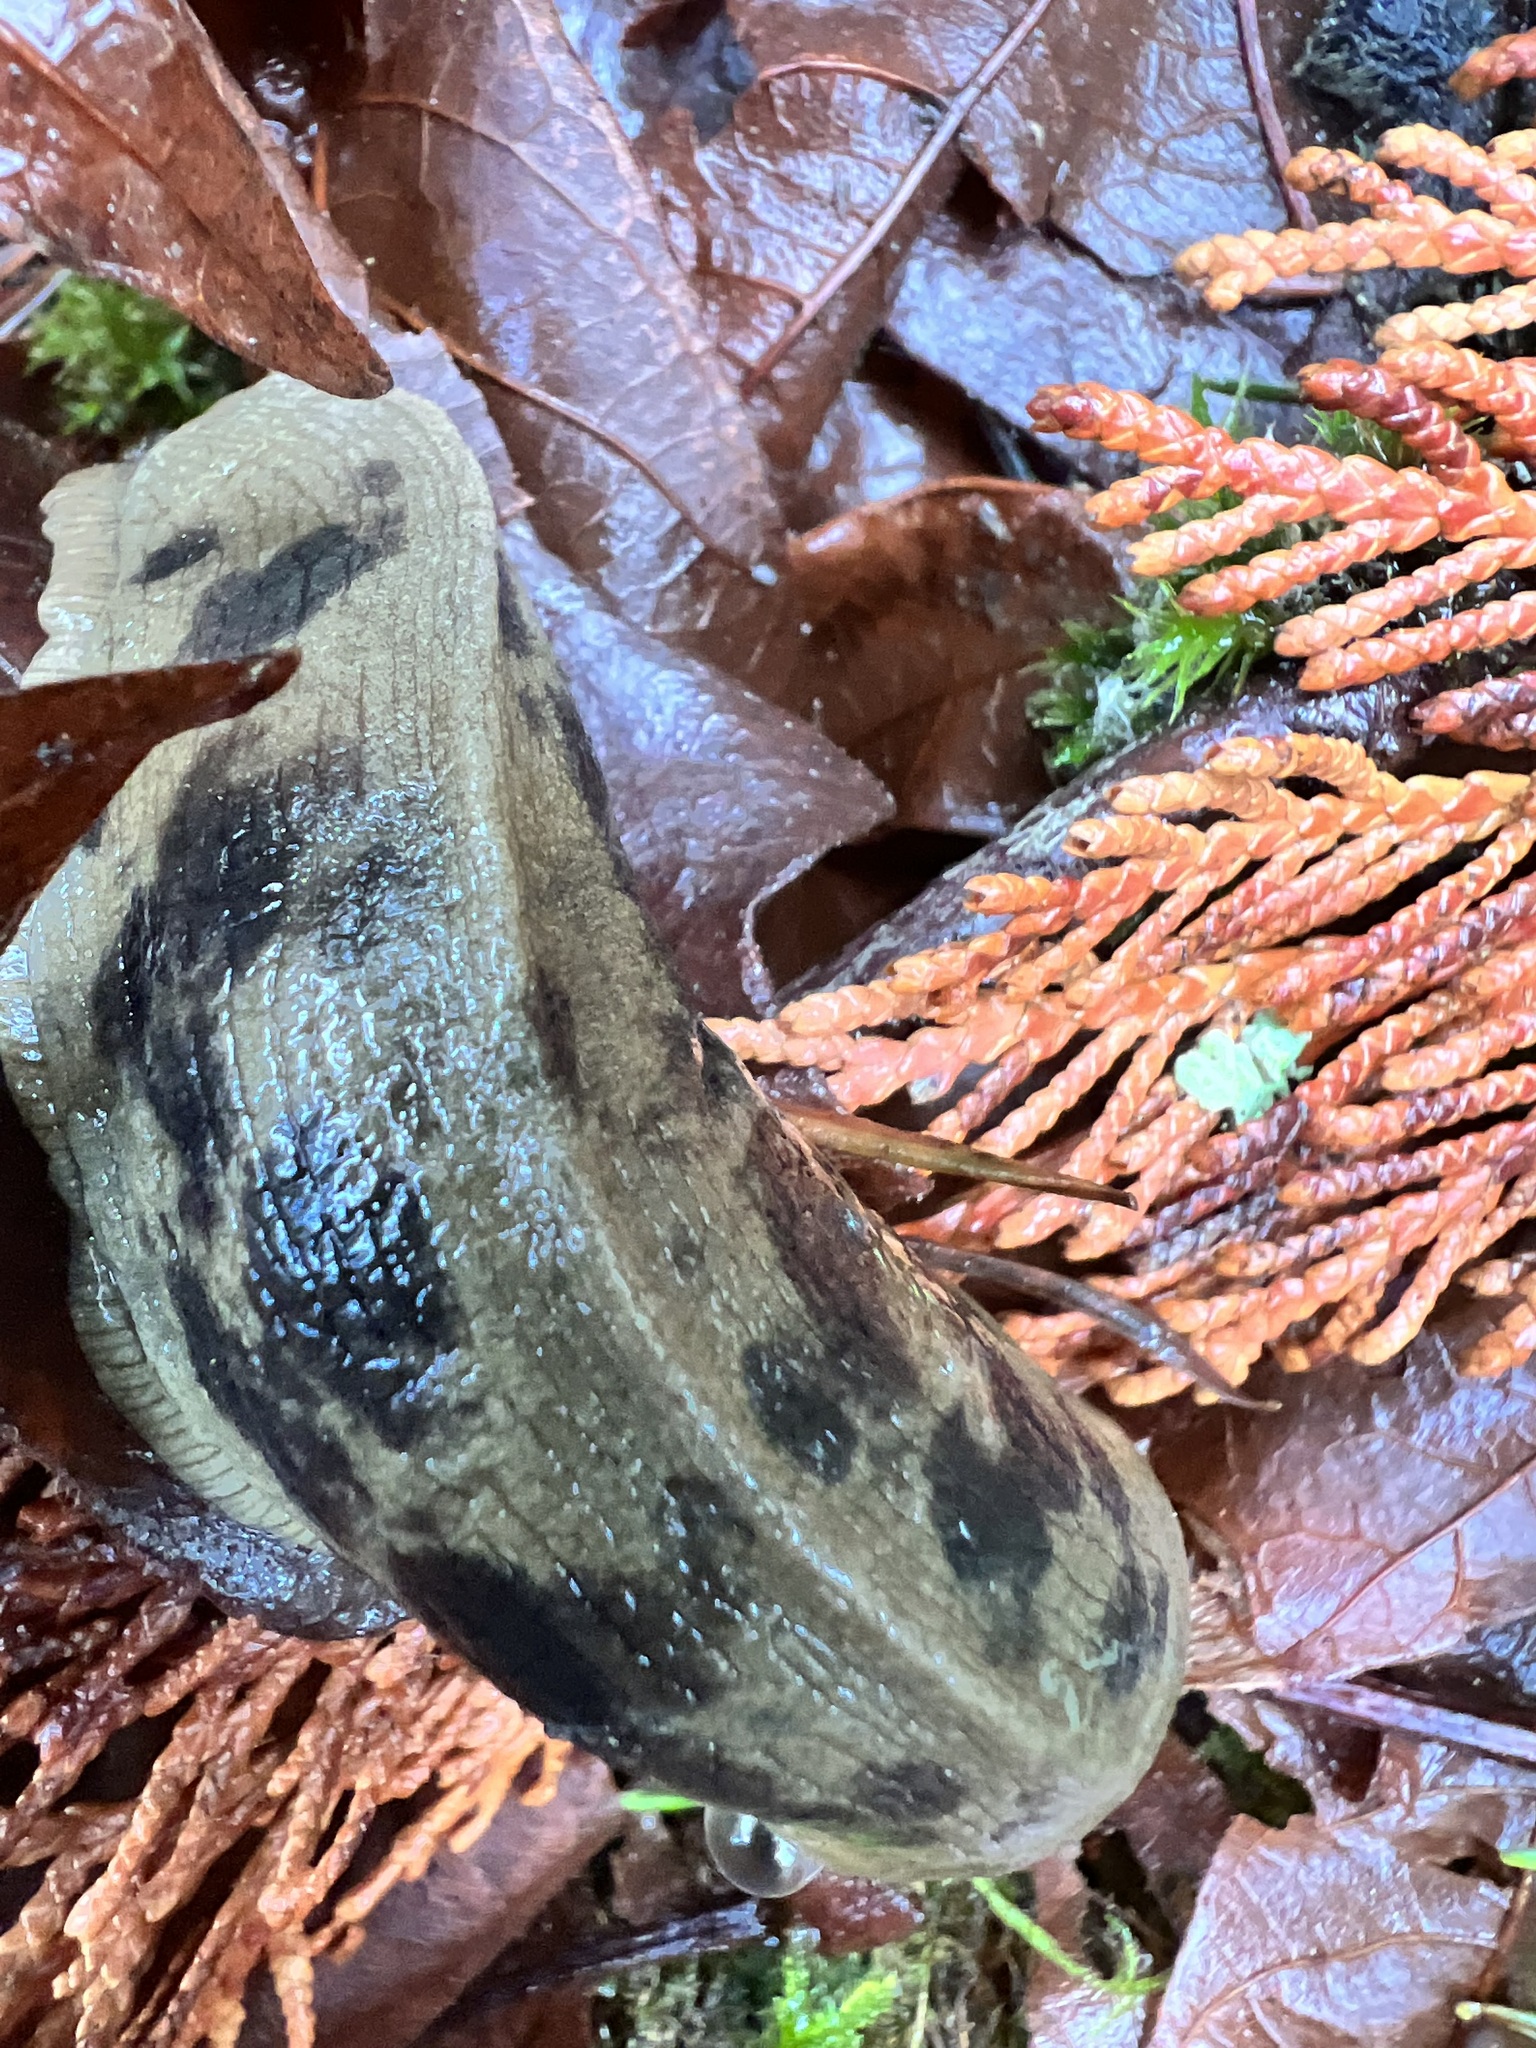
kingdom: Animalia
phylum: Mollusca
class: Gastropoda
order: Stylommatophora
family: Ariolimacidae
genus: Ariolimax
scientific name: Ariolimax columbianus
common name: Pacific banana slug
